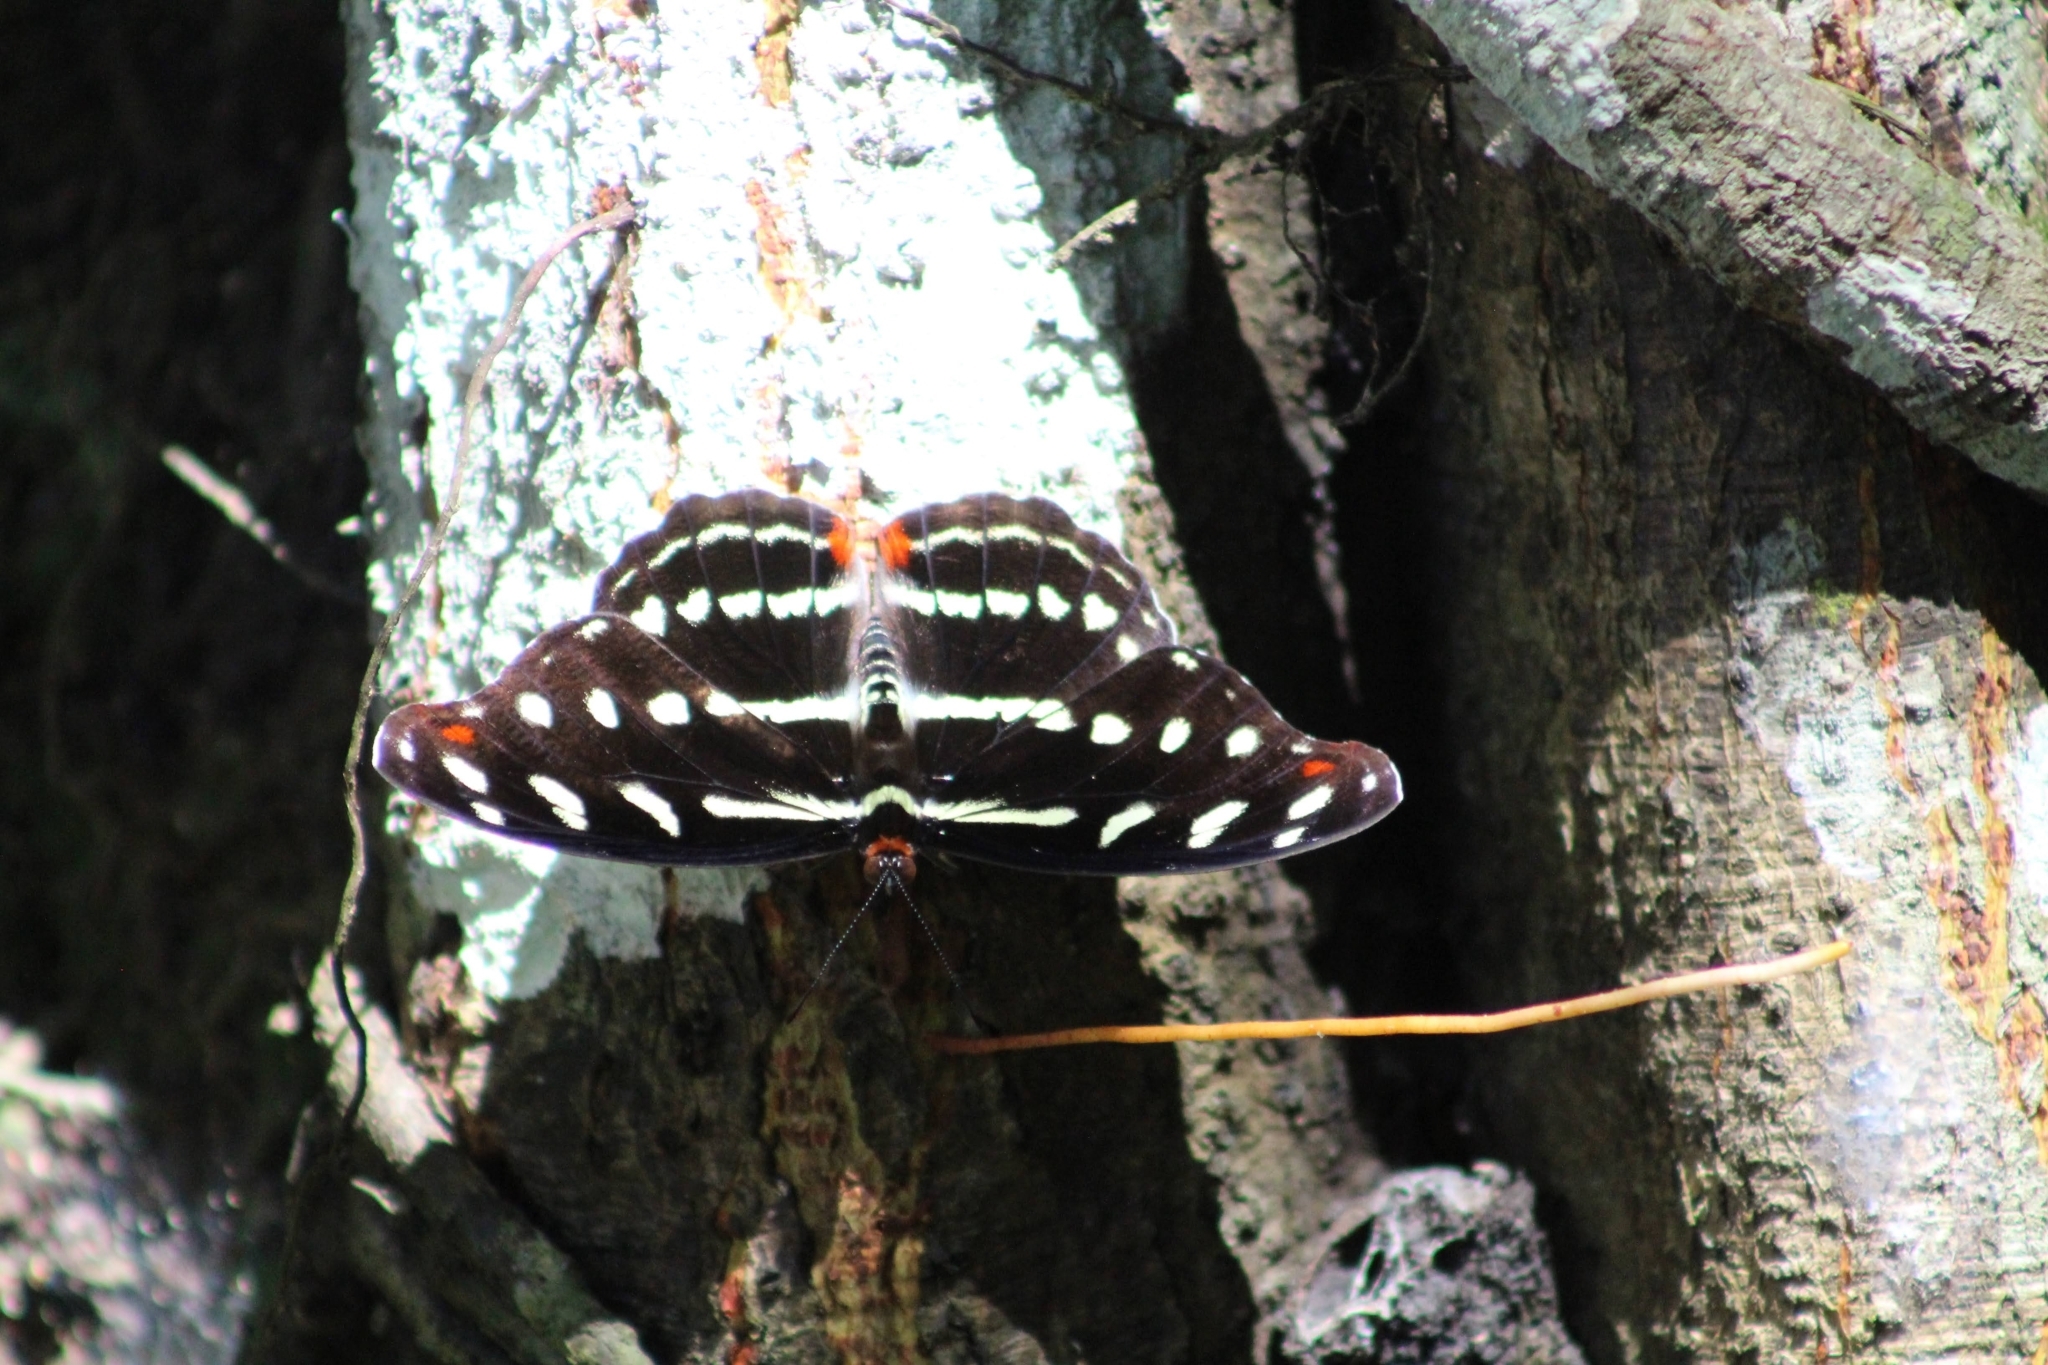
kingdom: Animalia
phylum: Arthropoda
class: Insecta
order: Lepidoptera
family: Nymphalidae
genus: Catonephele
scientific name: Catonephele acontius
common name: Unspotted firewing
